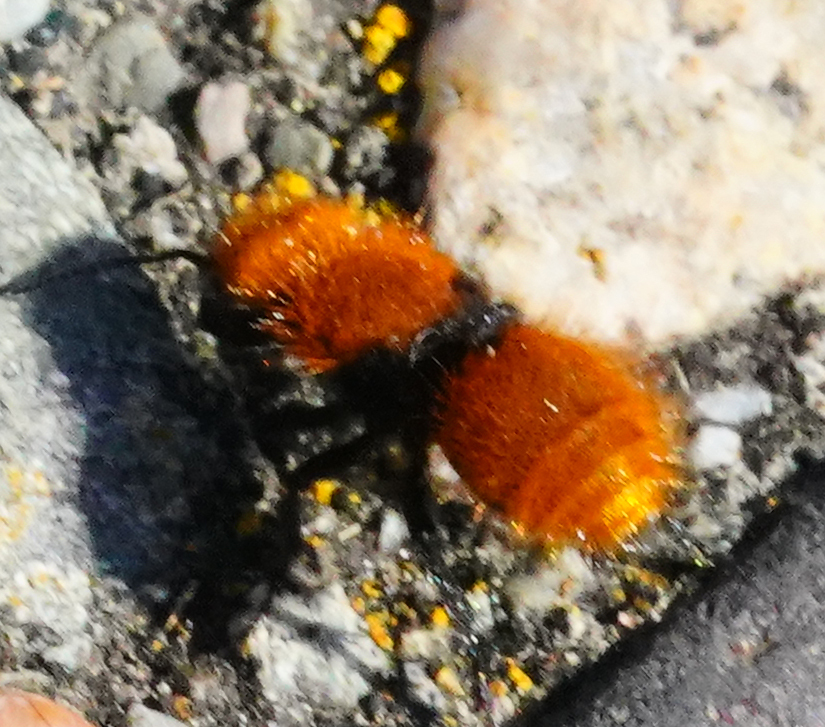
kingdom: Animalia
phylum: Arthropoda
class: Insecta
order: Hymenoptera
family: Mutillidae
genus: Dasymutilla
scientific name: Dasymutilla
